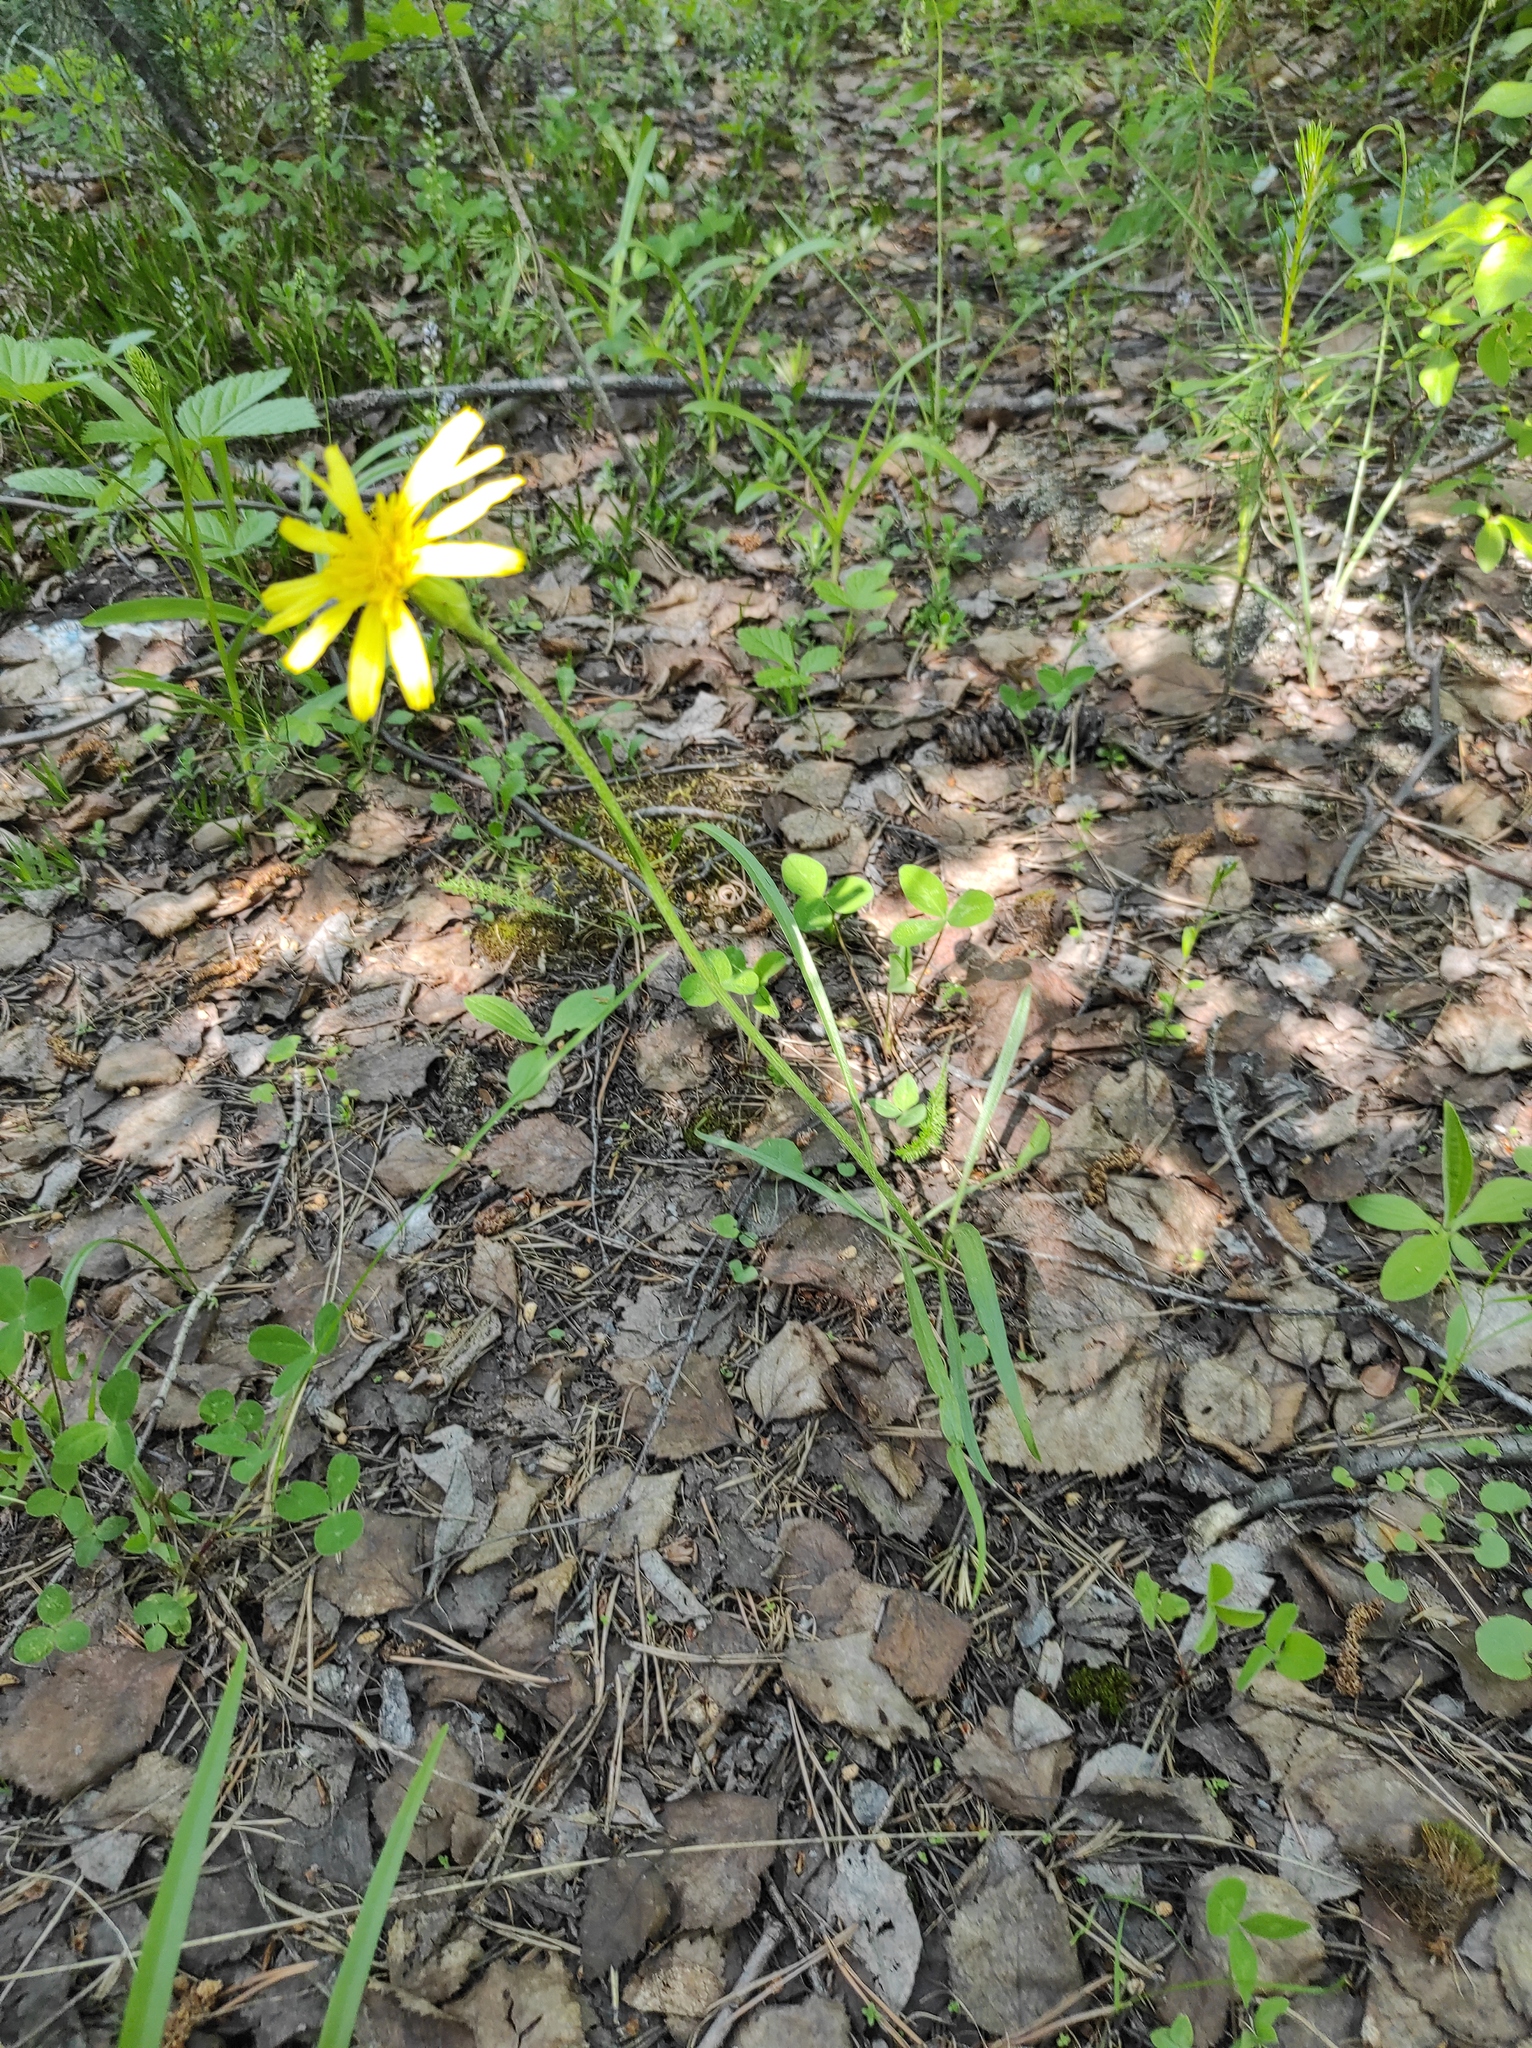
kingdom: Plantae
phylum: Tracheophyta
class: Magnoliopsida
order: Asterales
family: Asteraceae
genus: Scorzonera
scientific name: Scorzonera radiata
